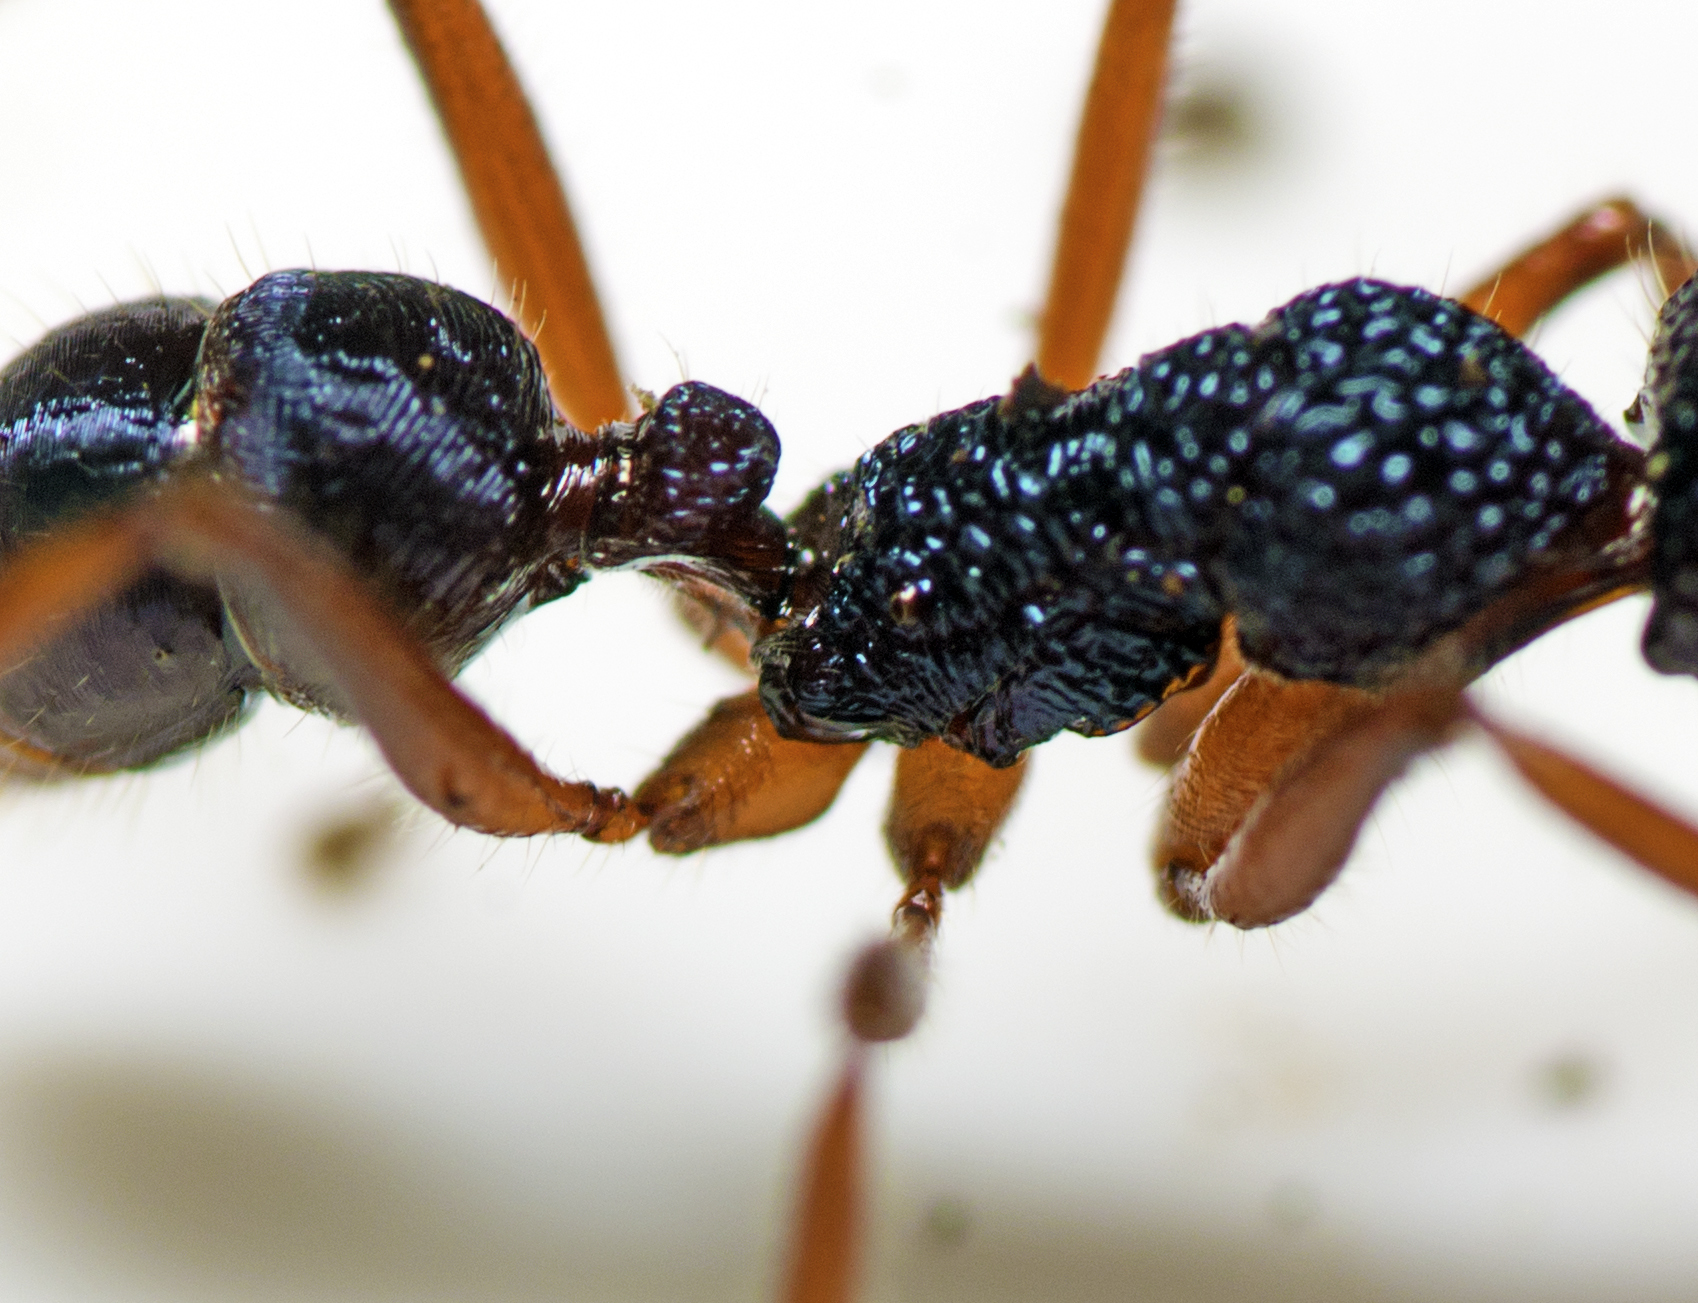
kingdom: Animalia
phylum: Arthropoda
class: Insecta
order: Hymenoptera
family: Formicidae
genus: Rhytidoponera
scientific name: Rhytidoponera chalybaea
